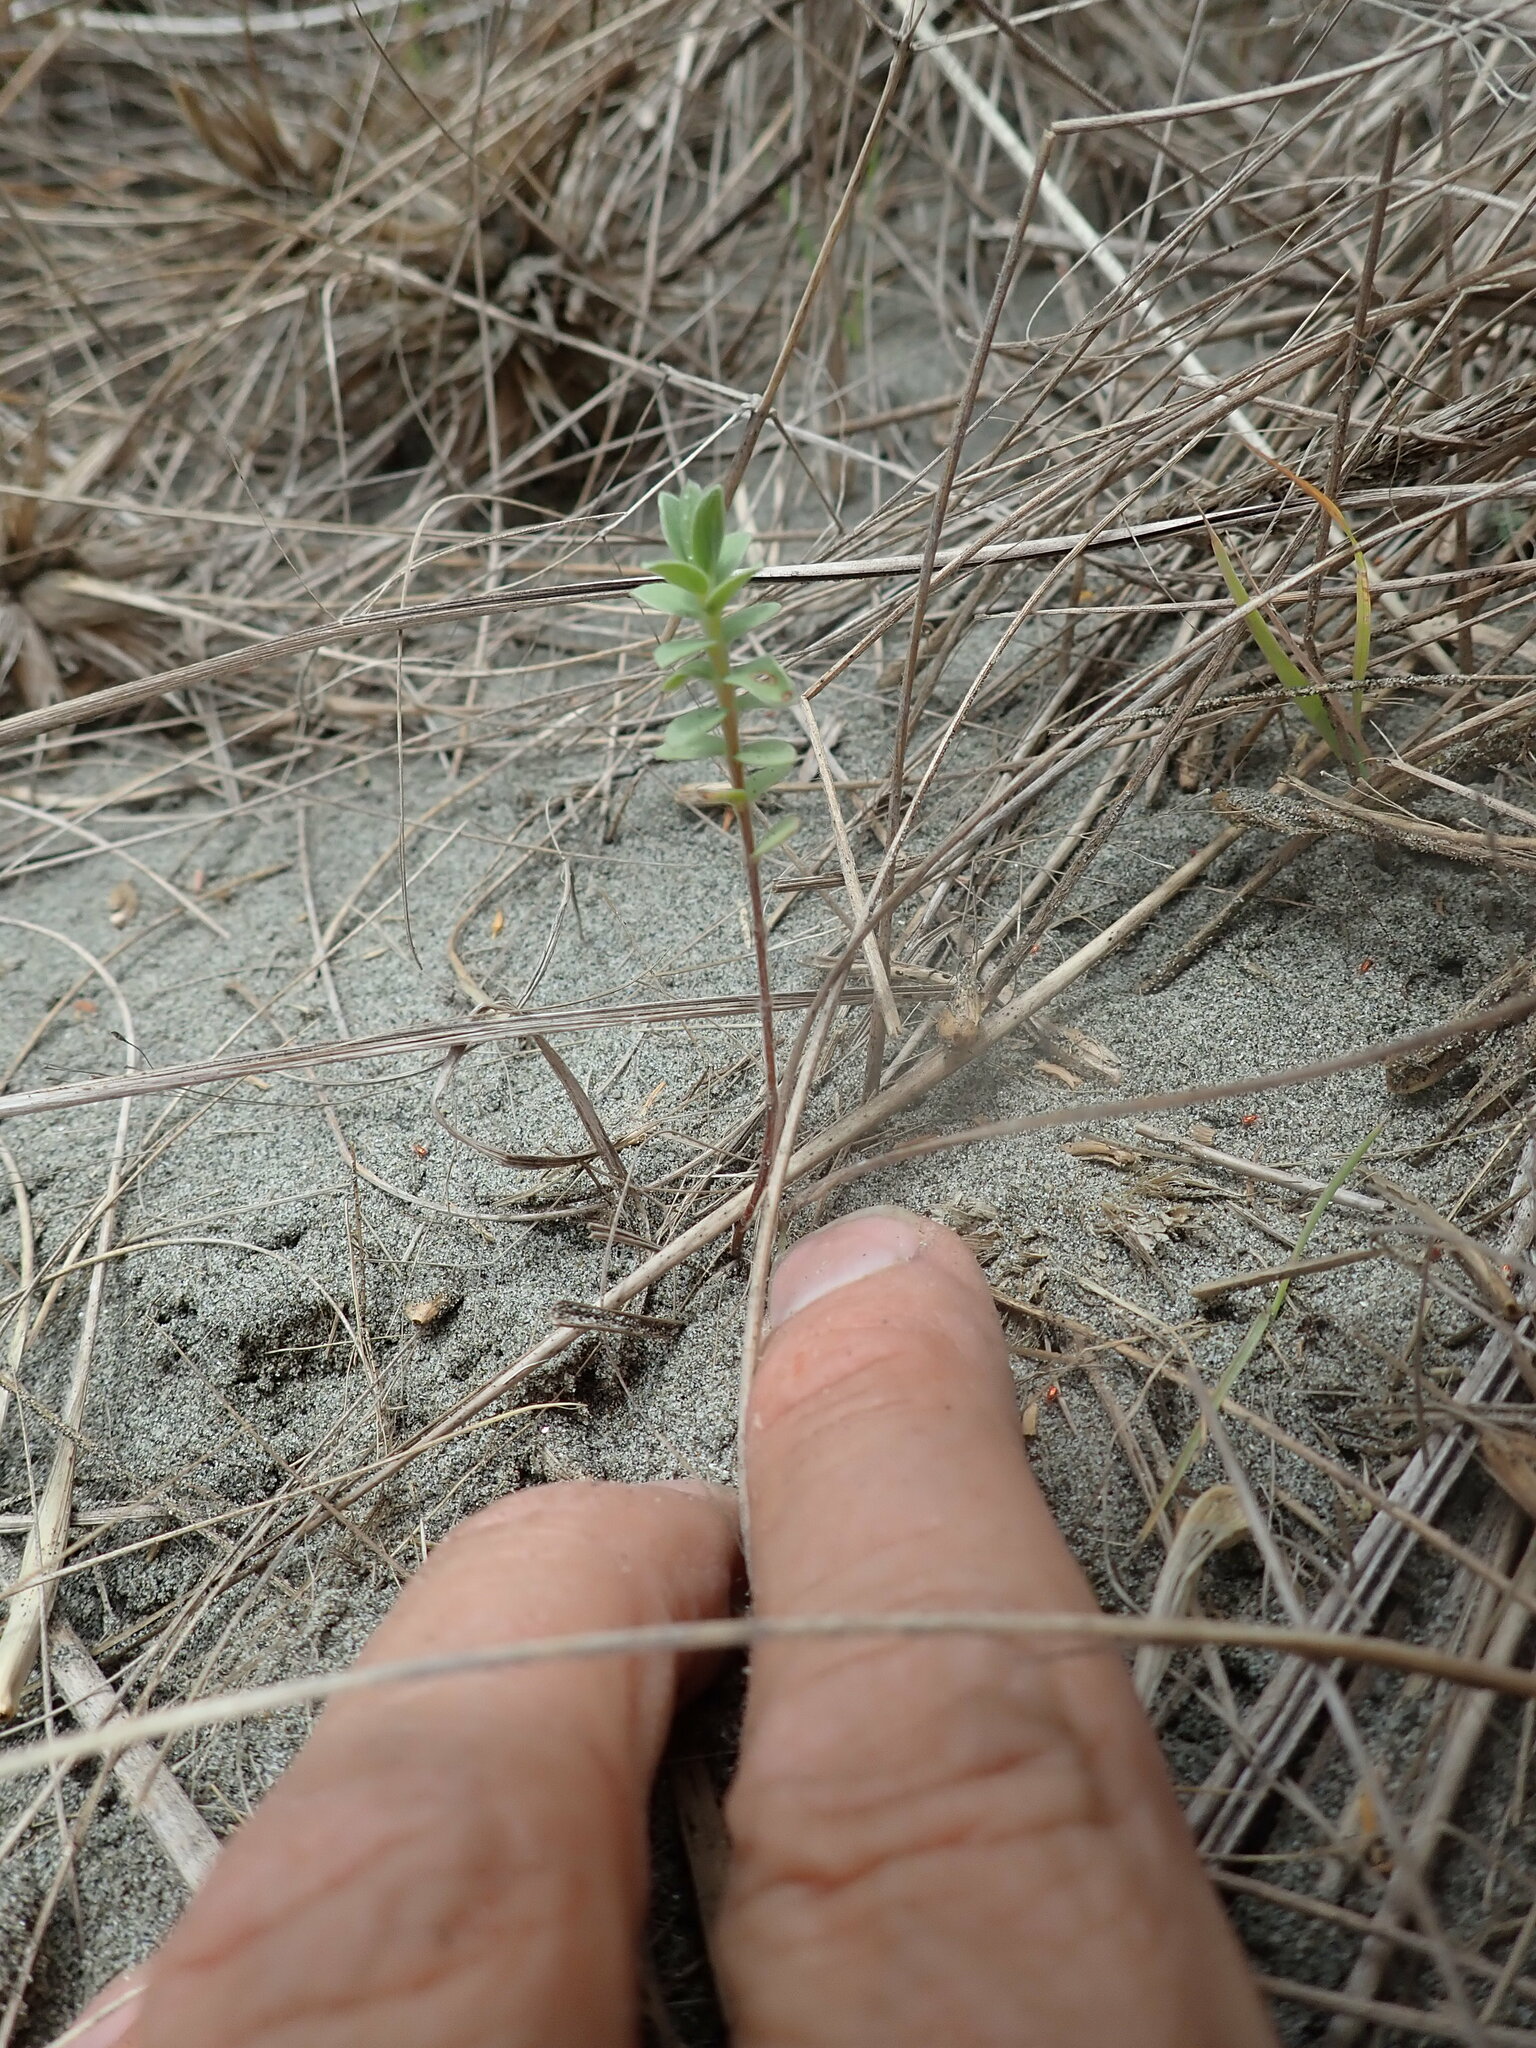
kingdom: Plantae
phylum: Tracheophyta
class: Magnoliopsida
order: Malvales
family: Thymelaeaceae
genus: Pimelea
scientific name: Pimelea villosa
